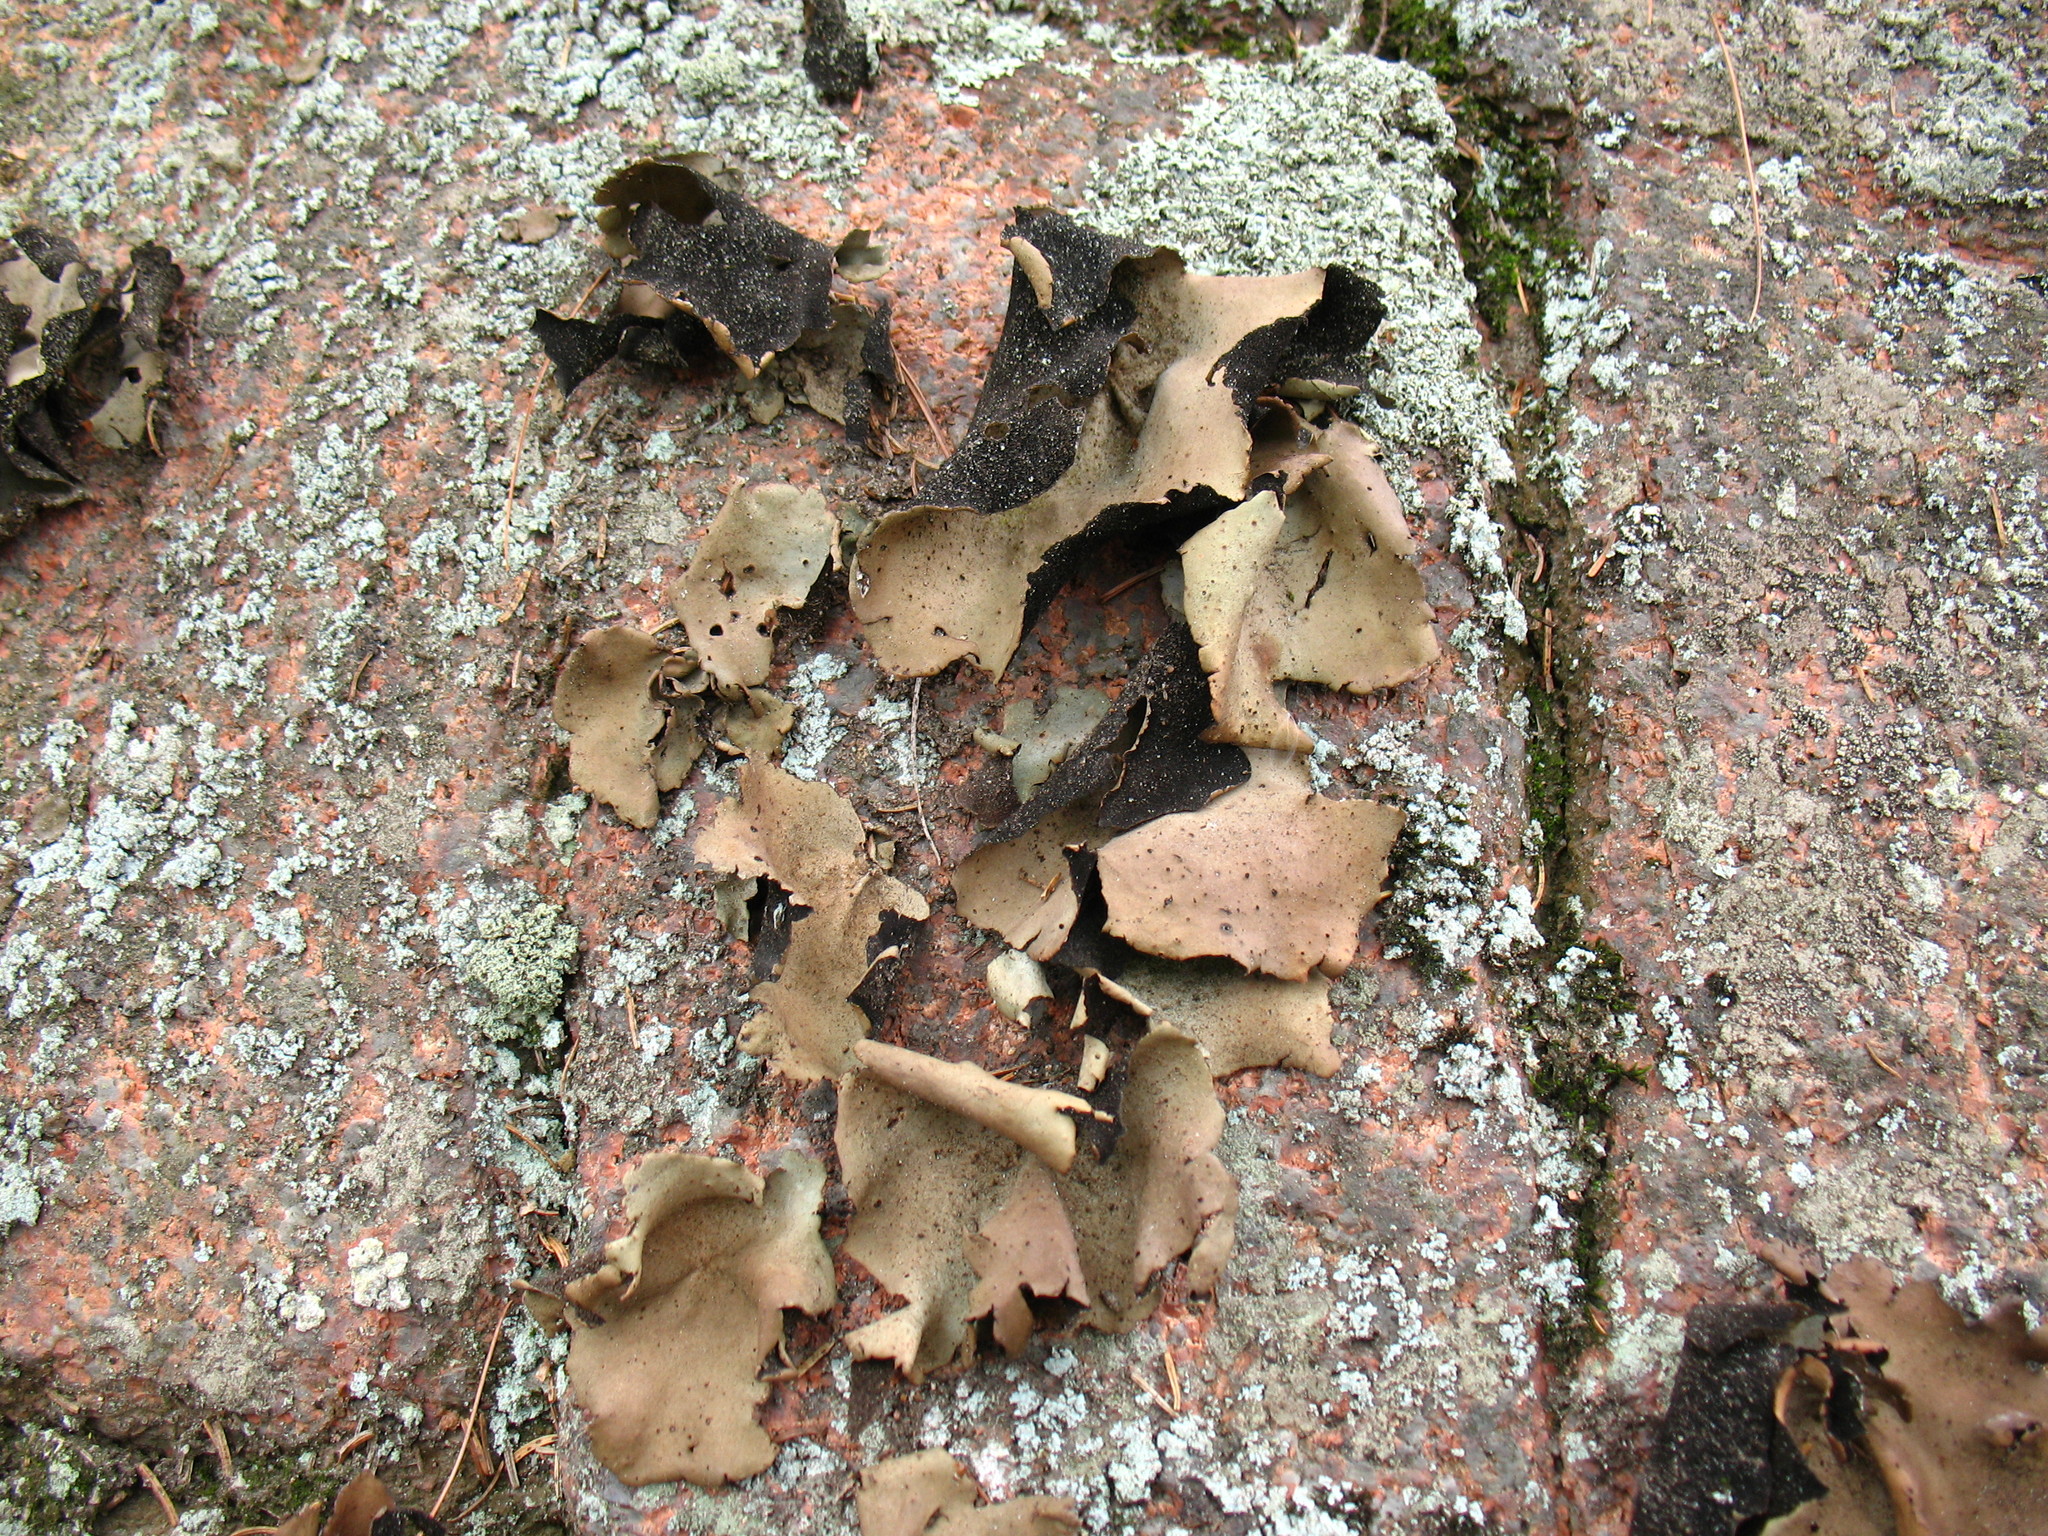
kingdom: Fungi
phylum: Ascomycota
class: Lecanoromycetes
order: Umbilicariales
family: Umbilicariaceae
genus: Umbilicaria
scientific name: Umbilicaria mammulata
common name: Smooth rock tripe
